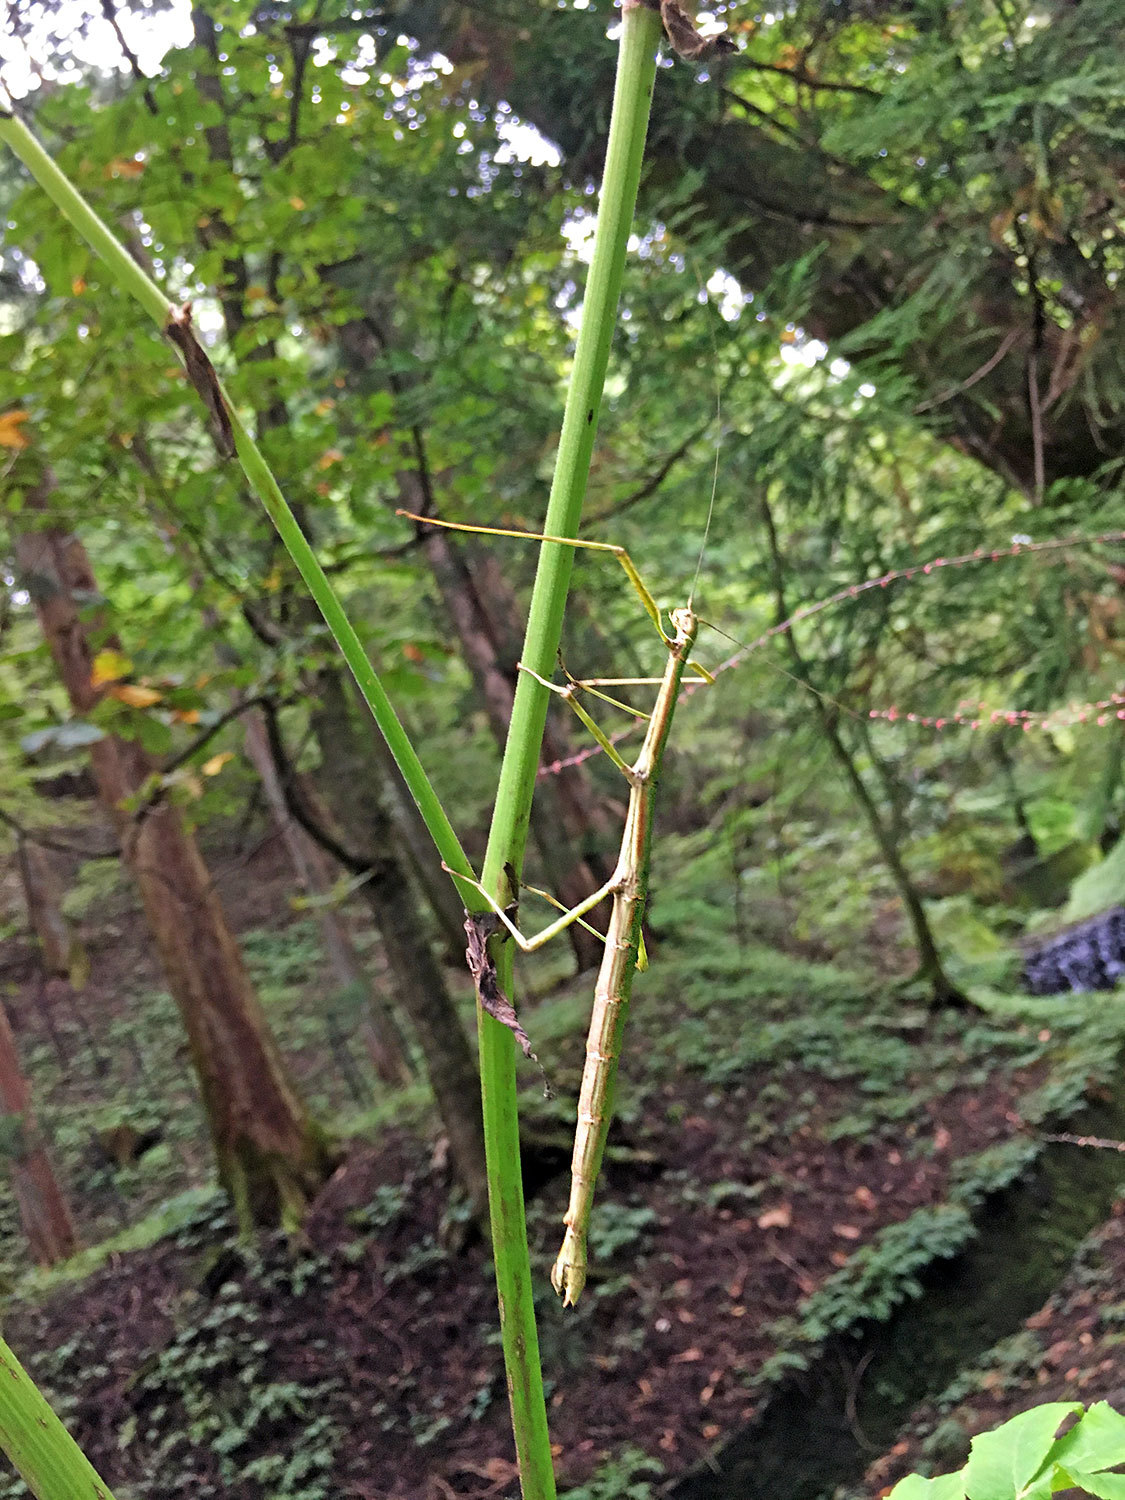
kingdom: Animalia
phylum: Arthropoda
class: Insecta
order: Phasmida
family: Lonchodidae
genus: Phraortes
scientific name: Phraortes elongatus
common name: Japanese stick-insect
